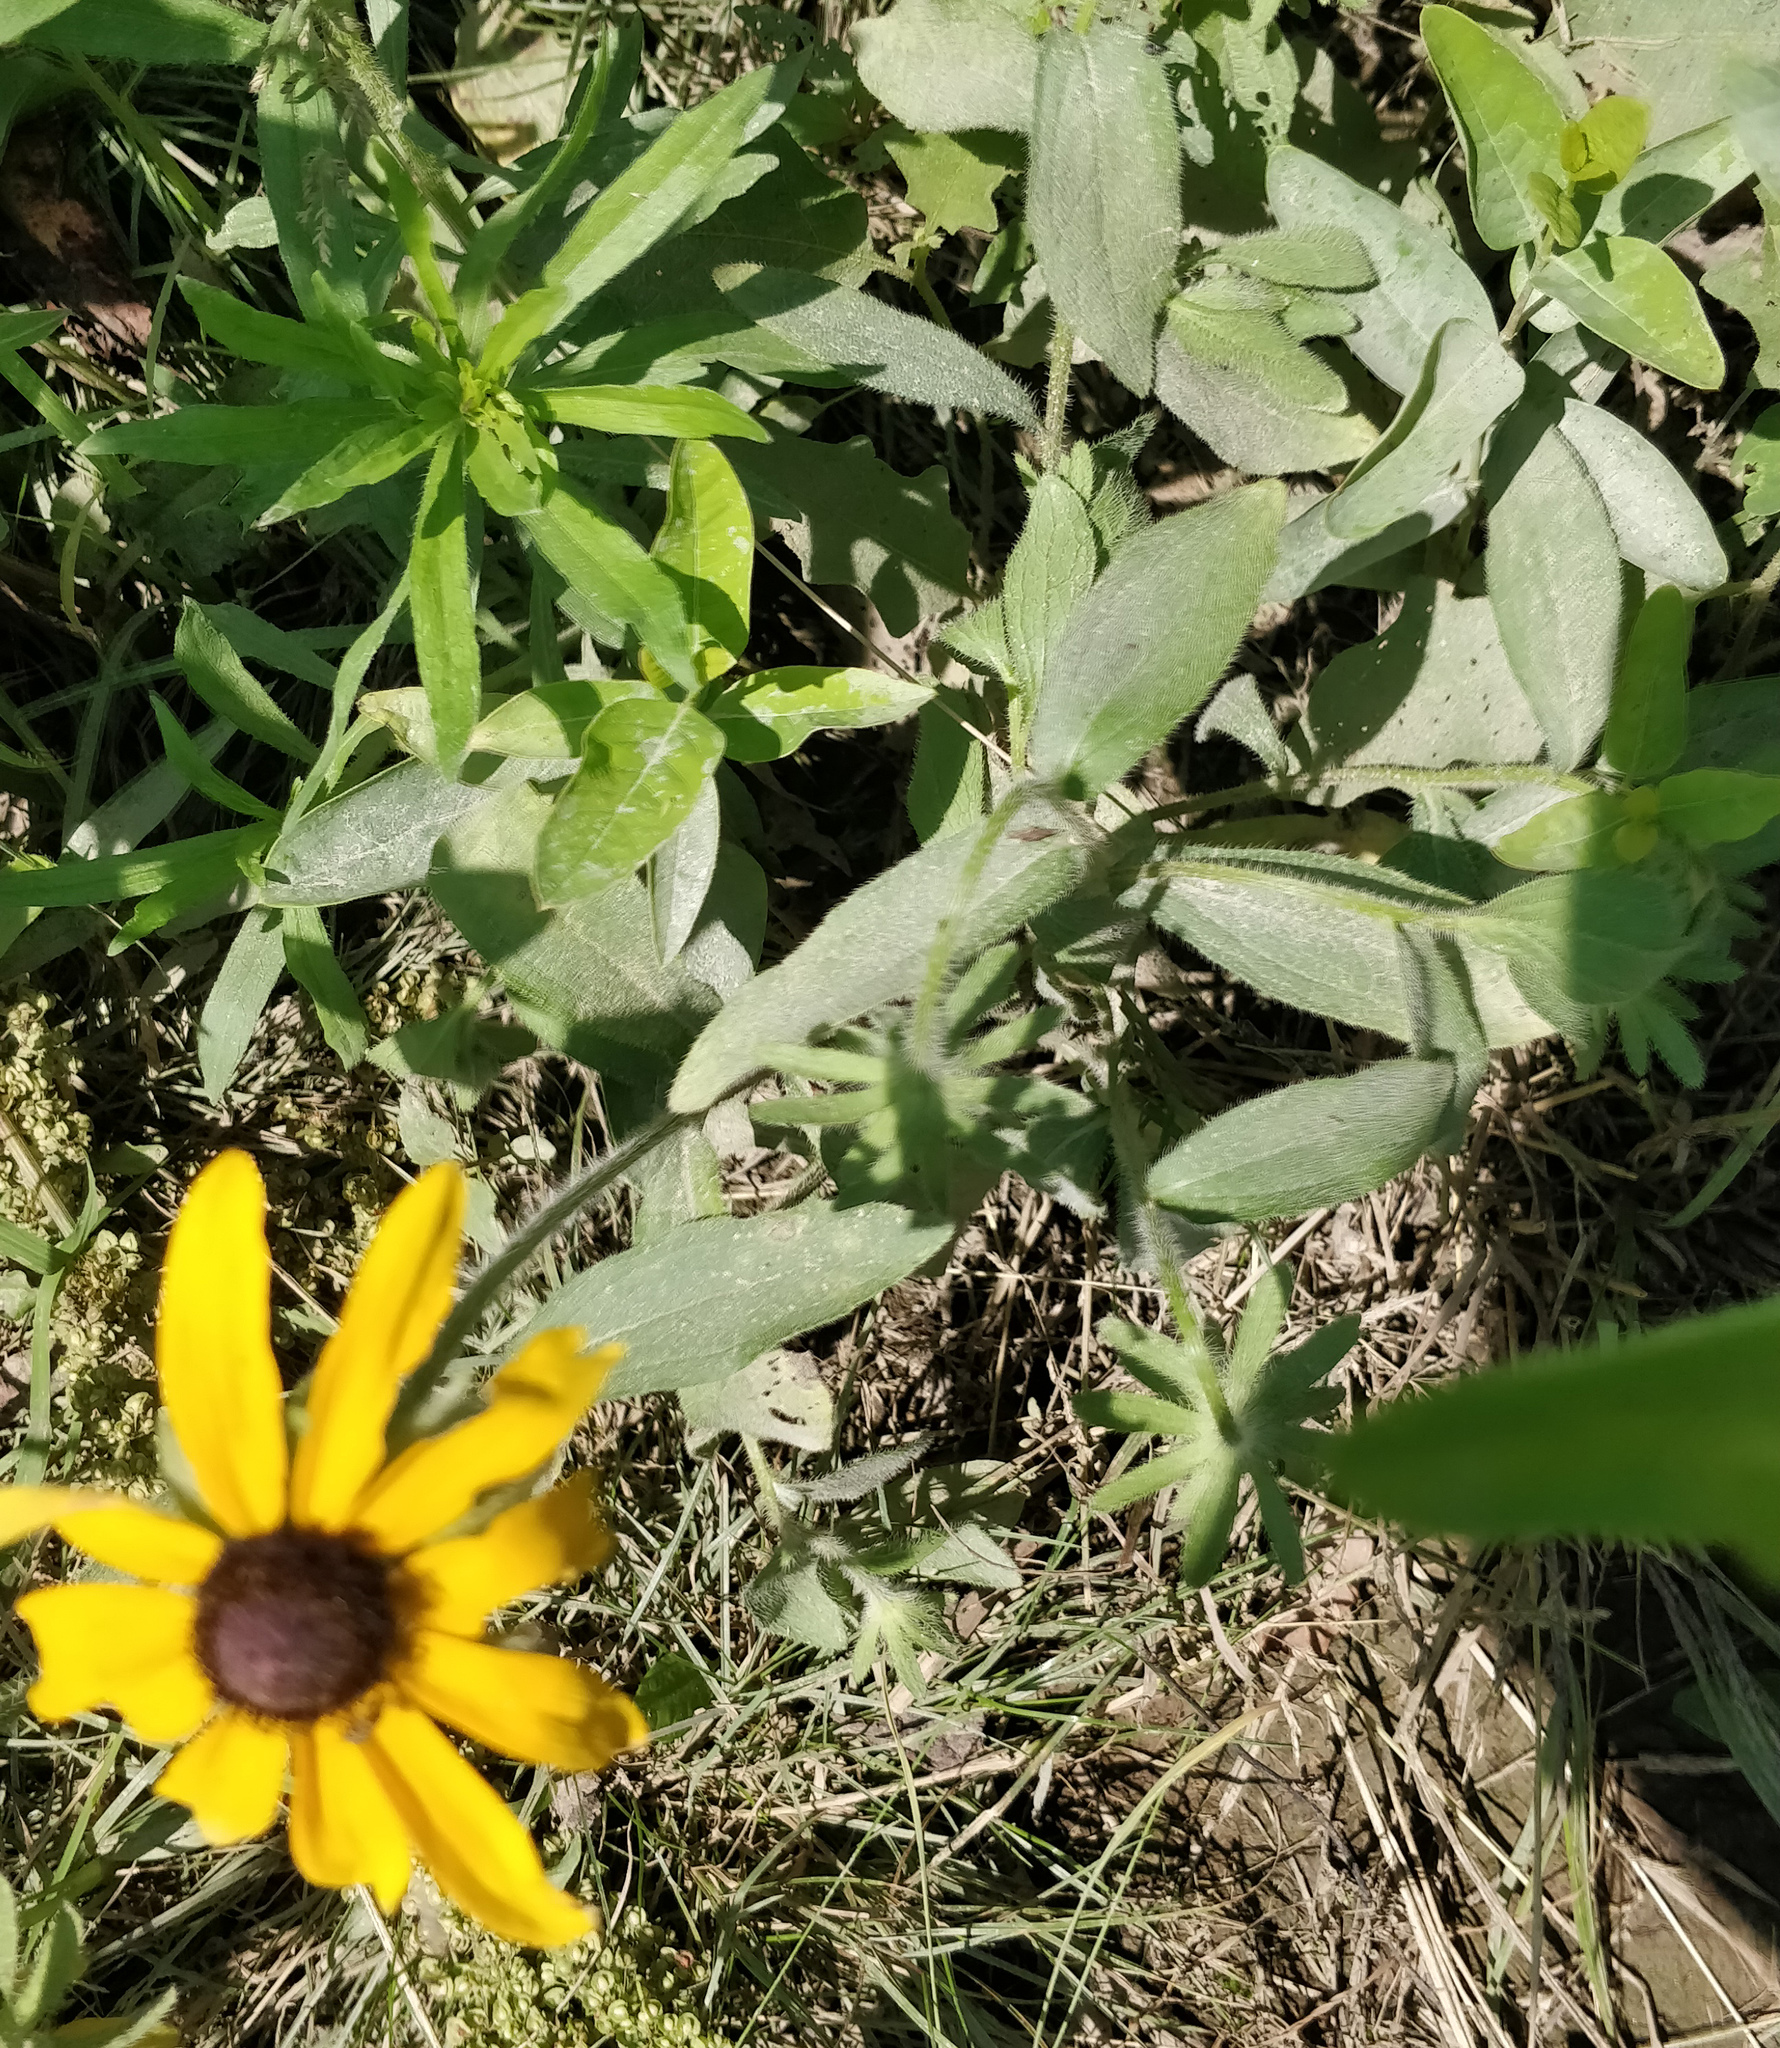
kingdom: Plantae
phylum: Tracheophyta
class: Magnoliopsida
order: Asterales
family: Asteraceae
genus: Rudbeckia
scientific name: Rudbeckia hirta
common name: Black-eyed-susan
